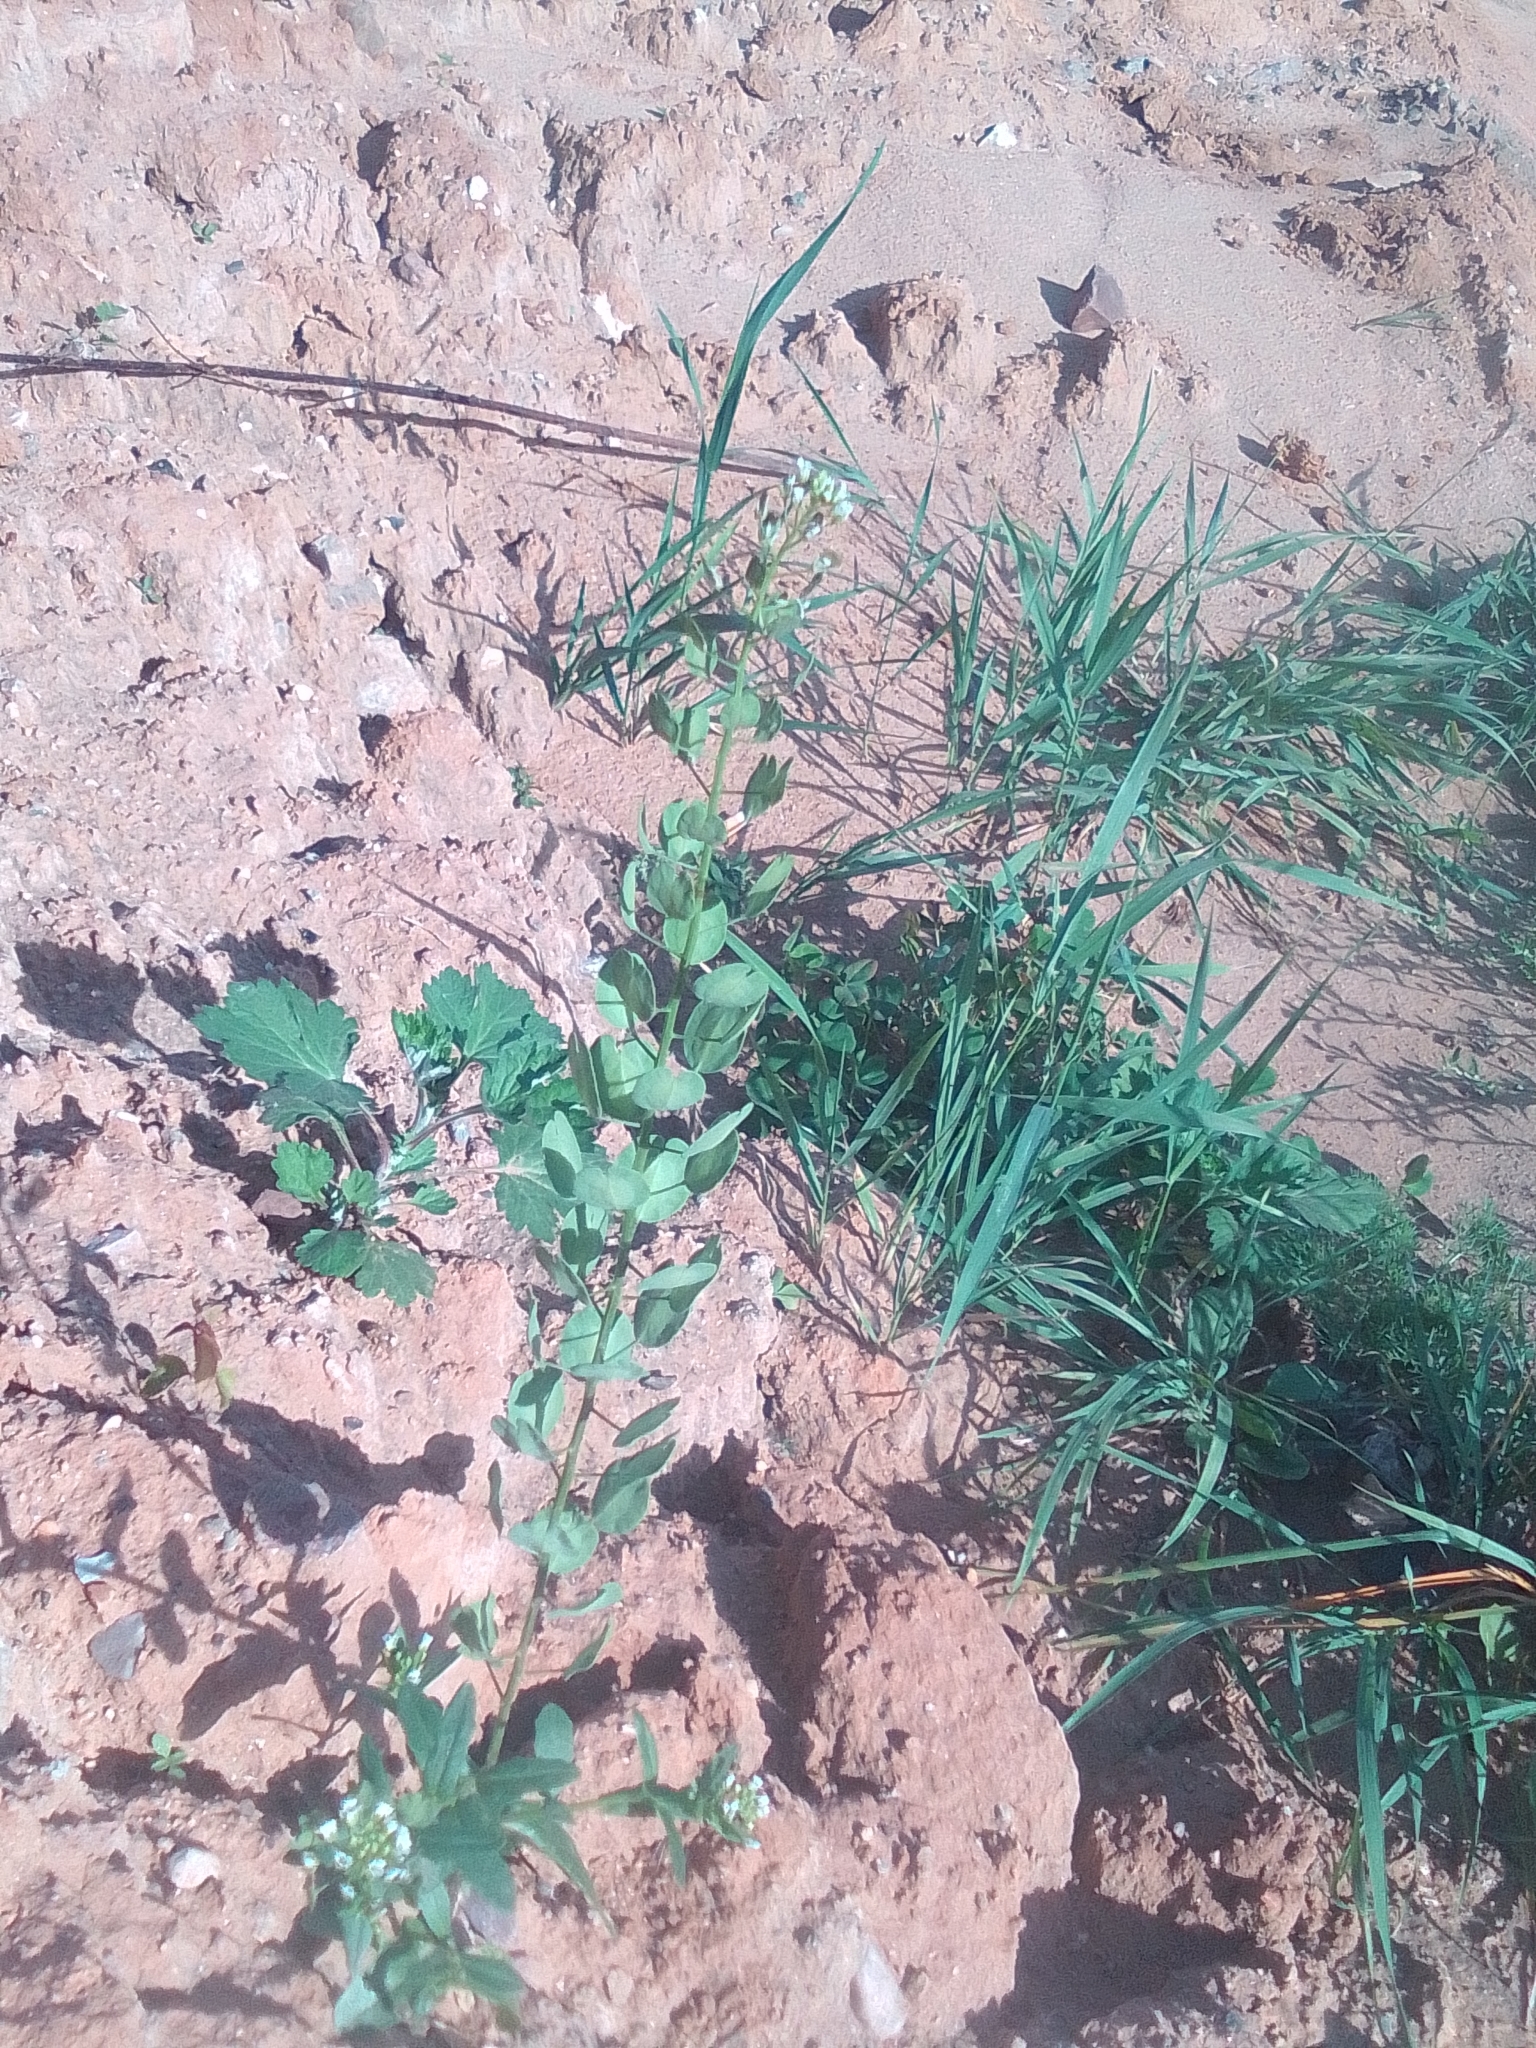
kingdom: Plantae
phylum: Tracheophyta
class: Magnoliopsida
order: Brassicales
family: Brassicaceae
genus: Thlaspi
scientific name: Thlaspi arvense
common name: Field pennycress
